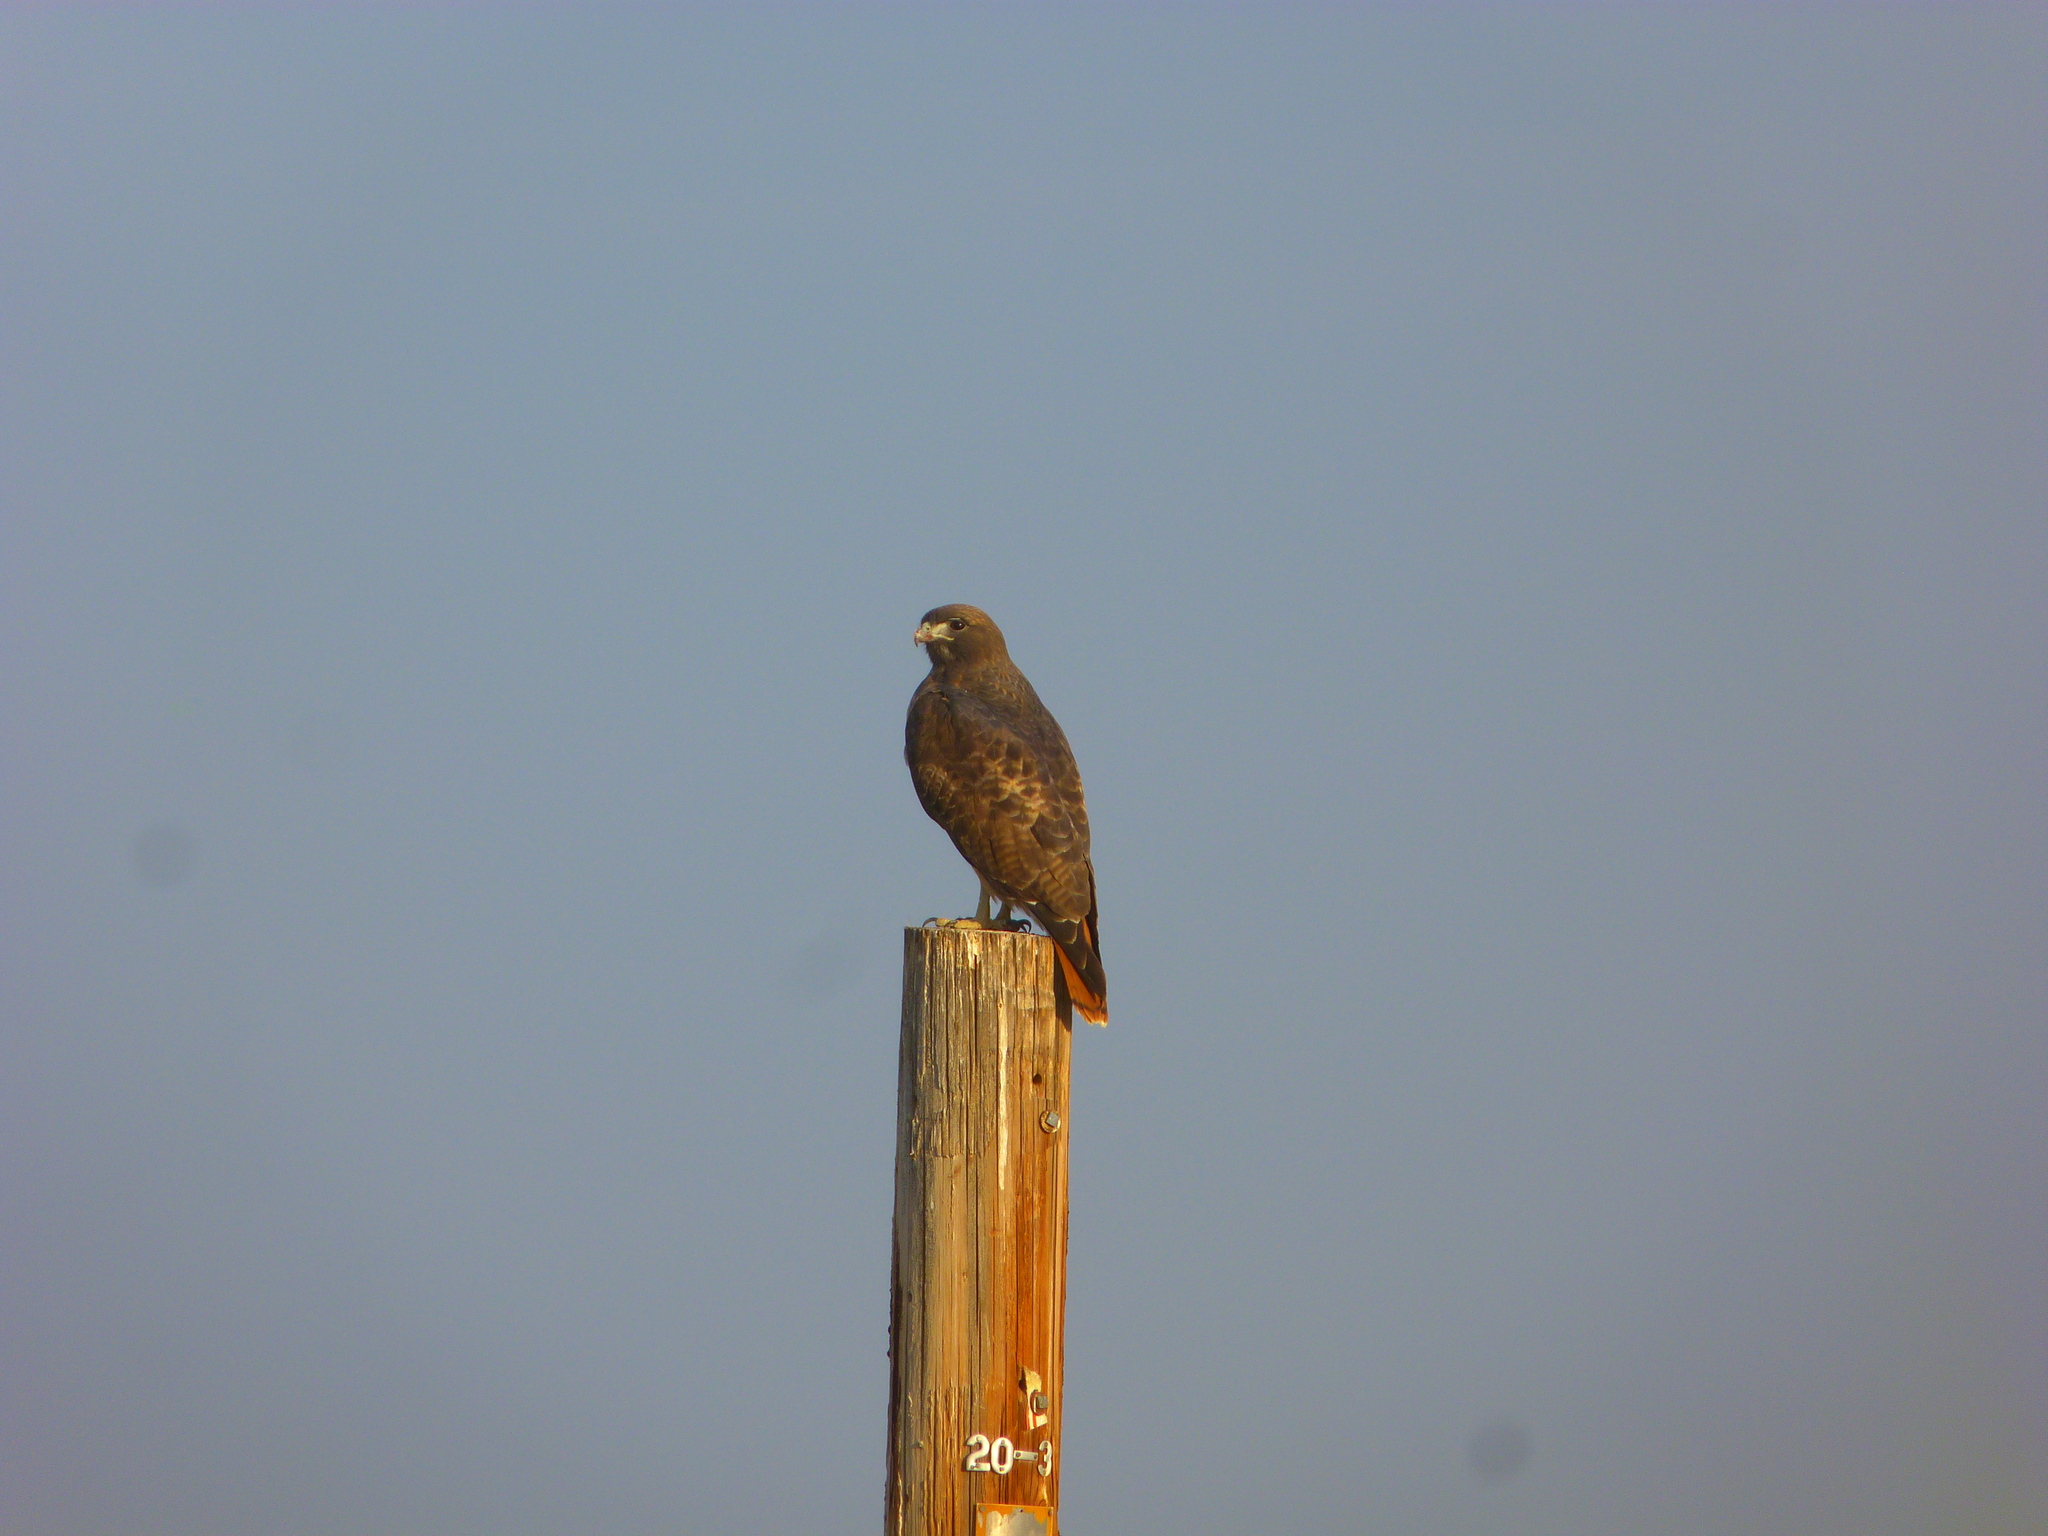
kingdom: Animalia
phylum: Chordata
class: Aves
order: Accipitriformes
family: Accipitridae
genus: Buteo
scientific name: Buteo jamaicensis
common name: Red-tailed hawk
